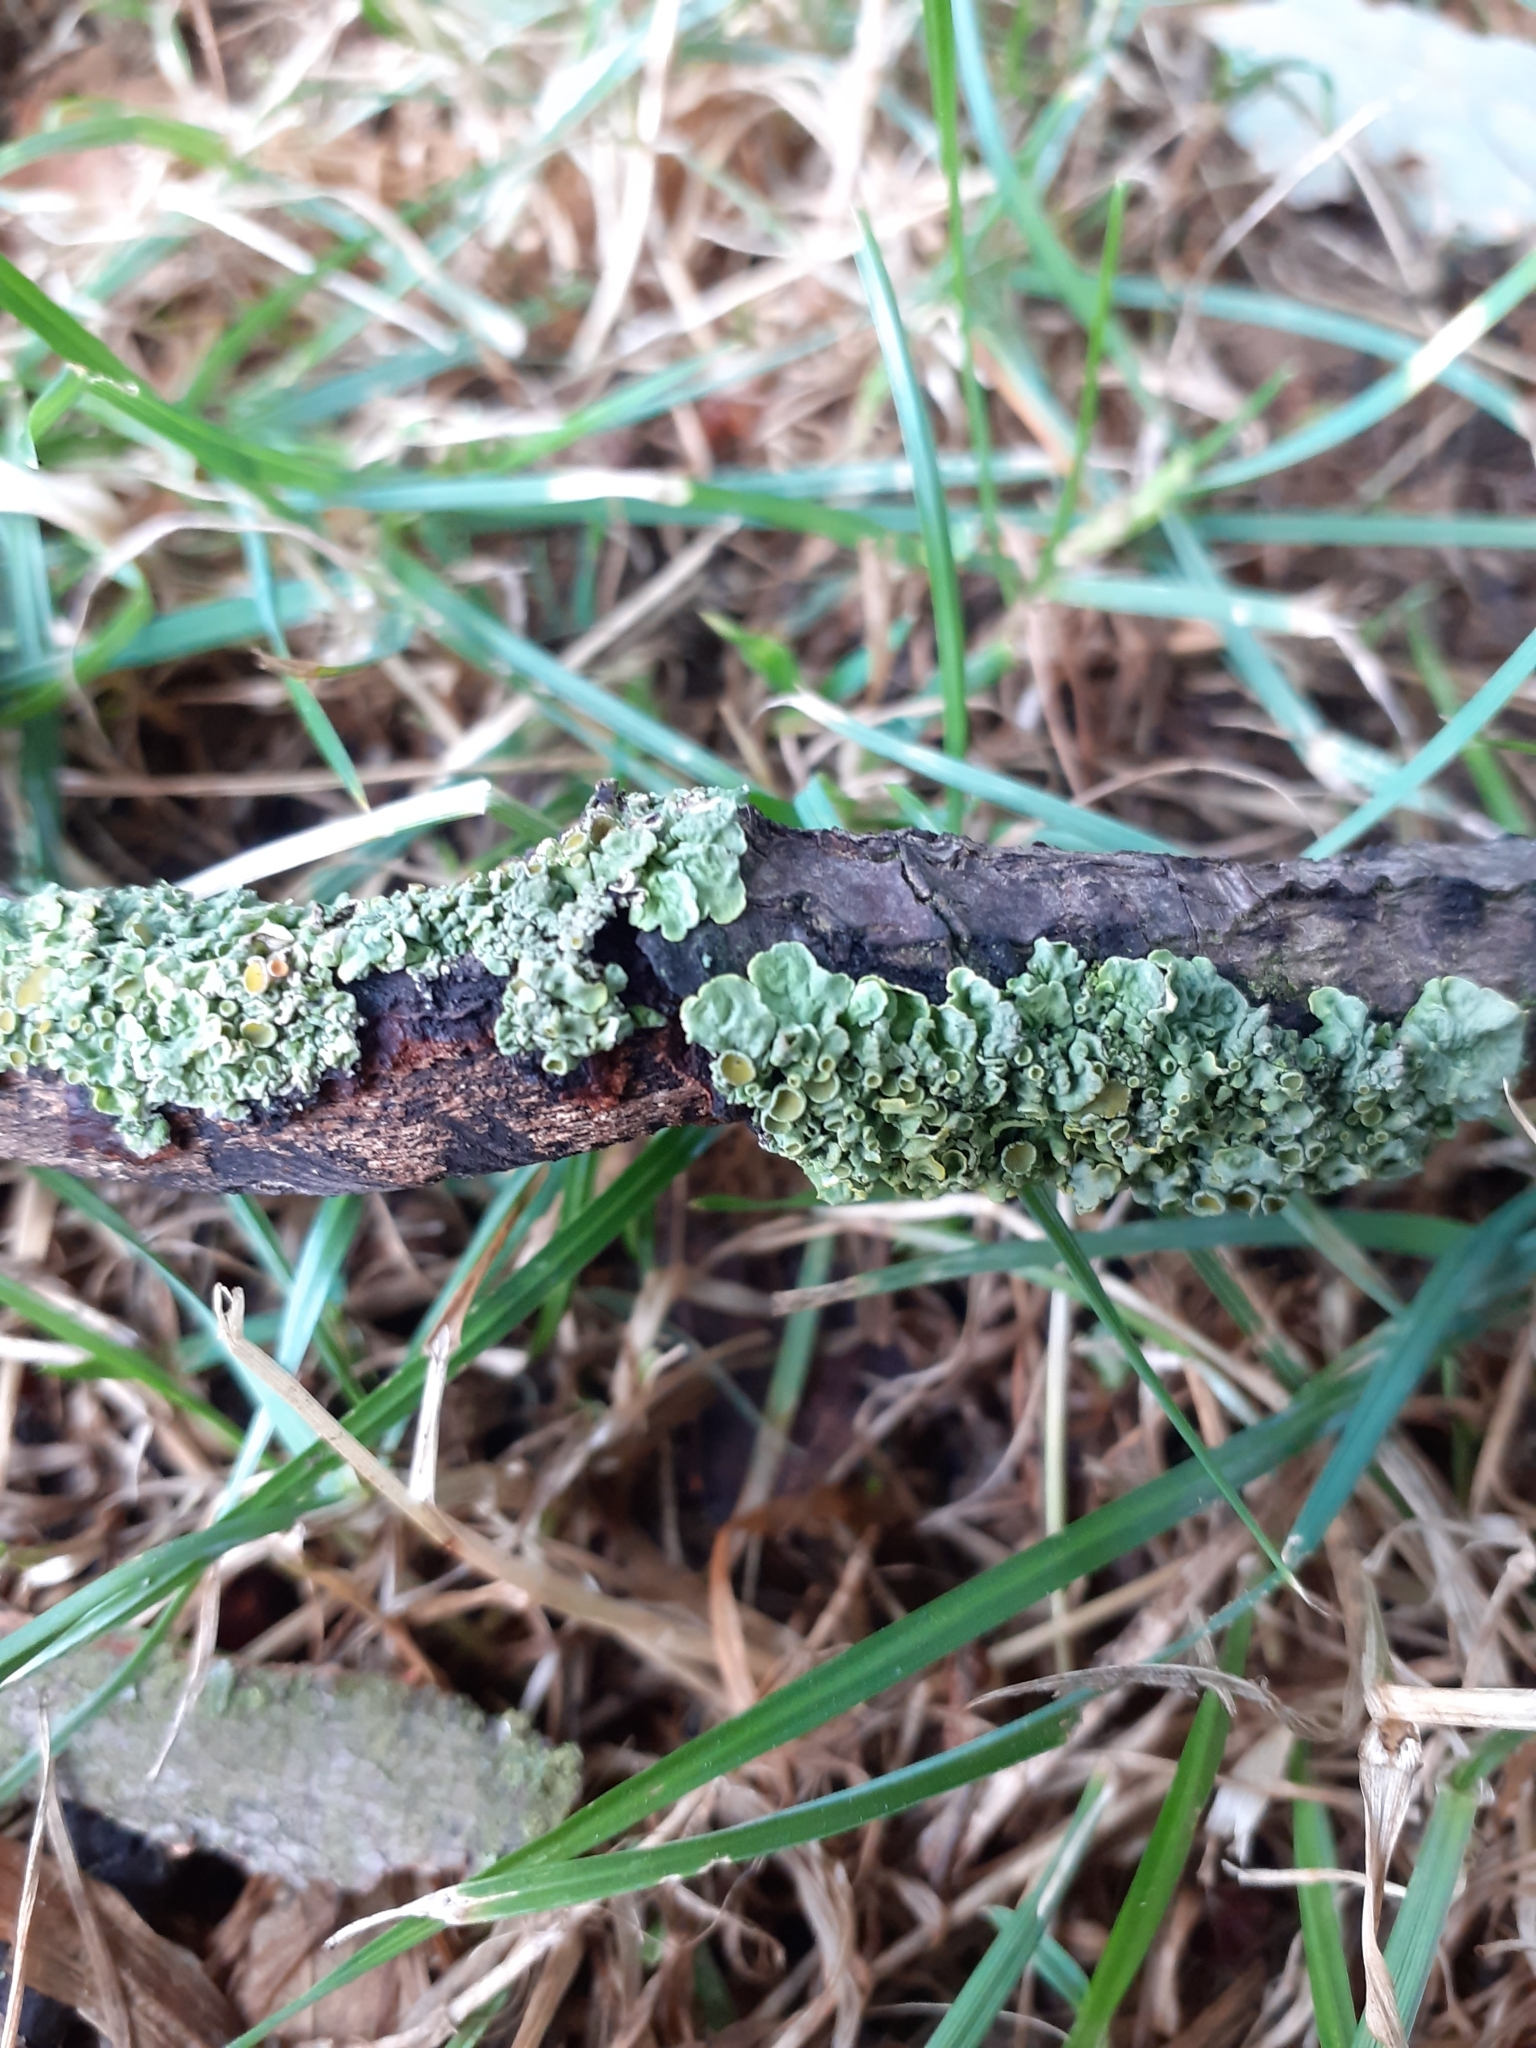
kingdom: Fungi
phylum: Ascomycota
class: Lecanoromycetes
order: Teloschistales
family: Teloschistaceae
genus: Xanthoria
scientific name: Xanthoria parietina
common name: Common orange lichen
